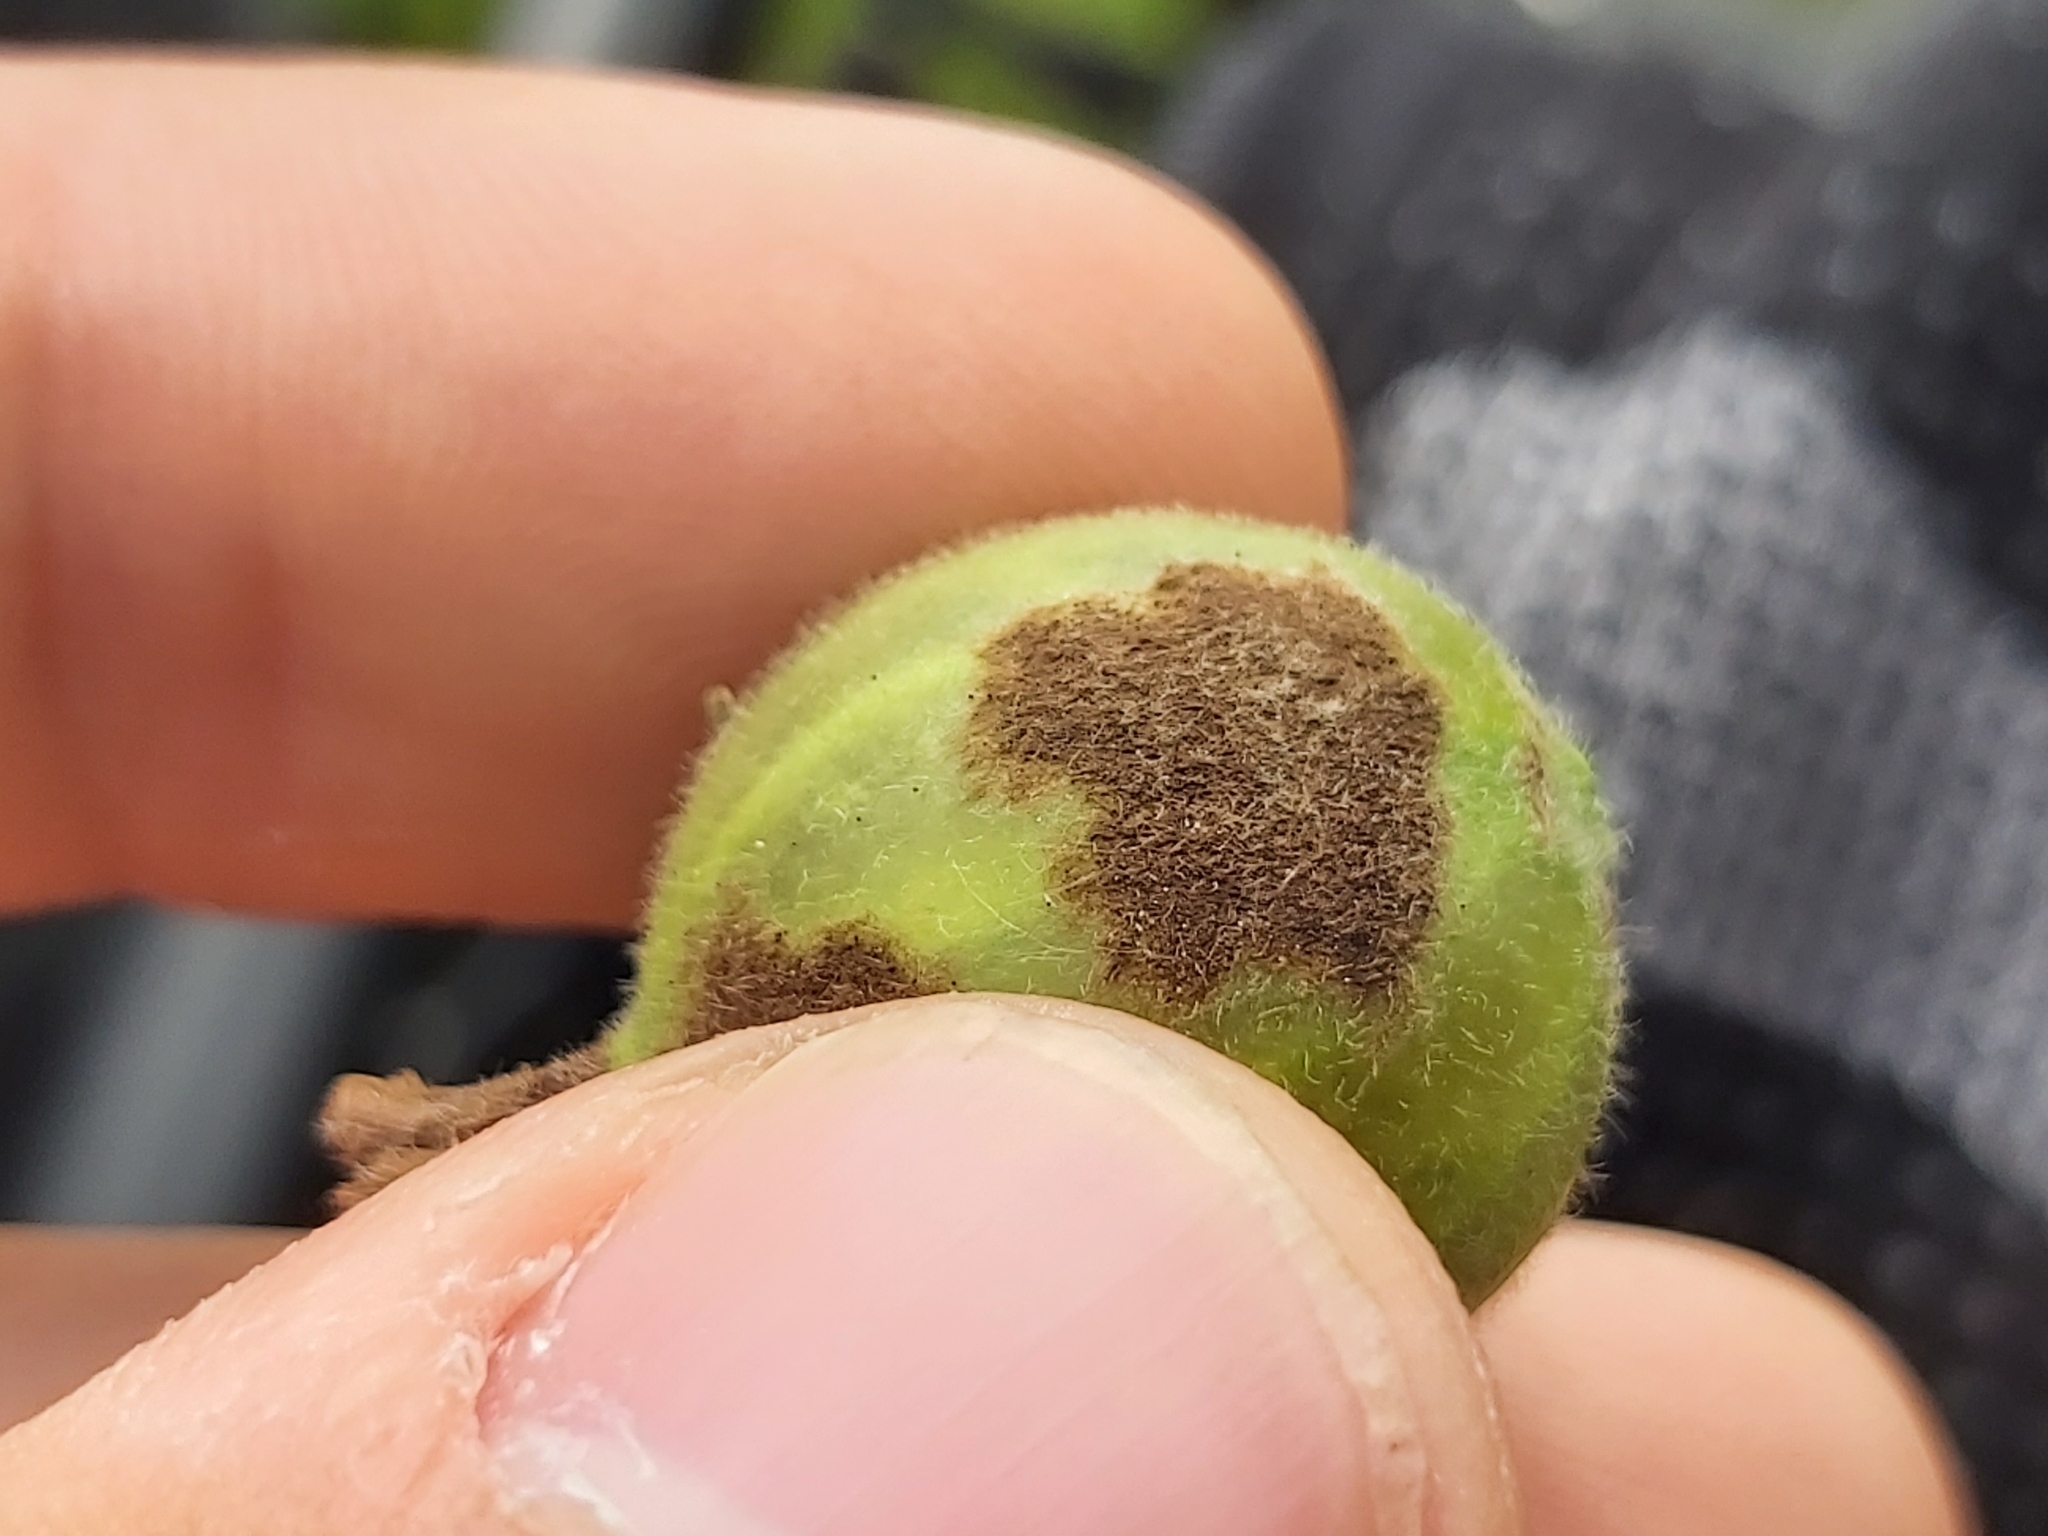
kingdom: Fungi
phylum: Ascomycota
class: Leotiomycetes
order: Helotiales
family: Erysiphaceae
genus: Podosphaera
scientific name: Podosphaera mors-uvae
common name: American gooseberry mildew
